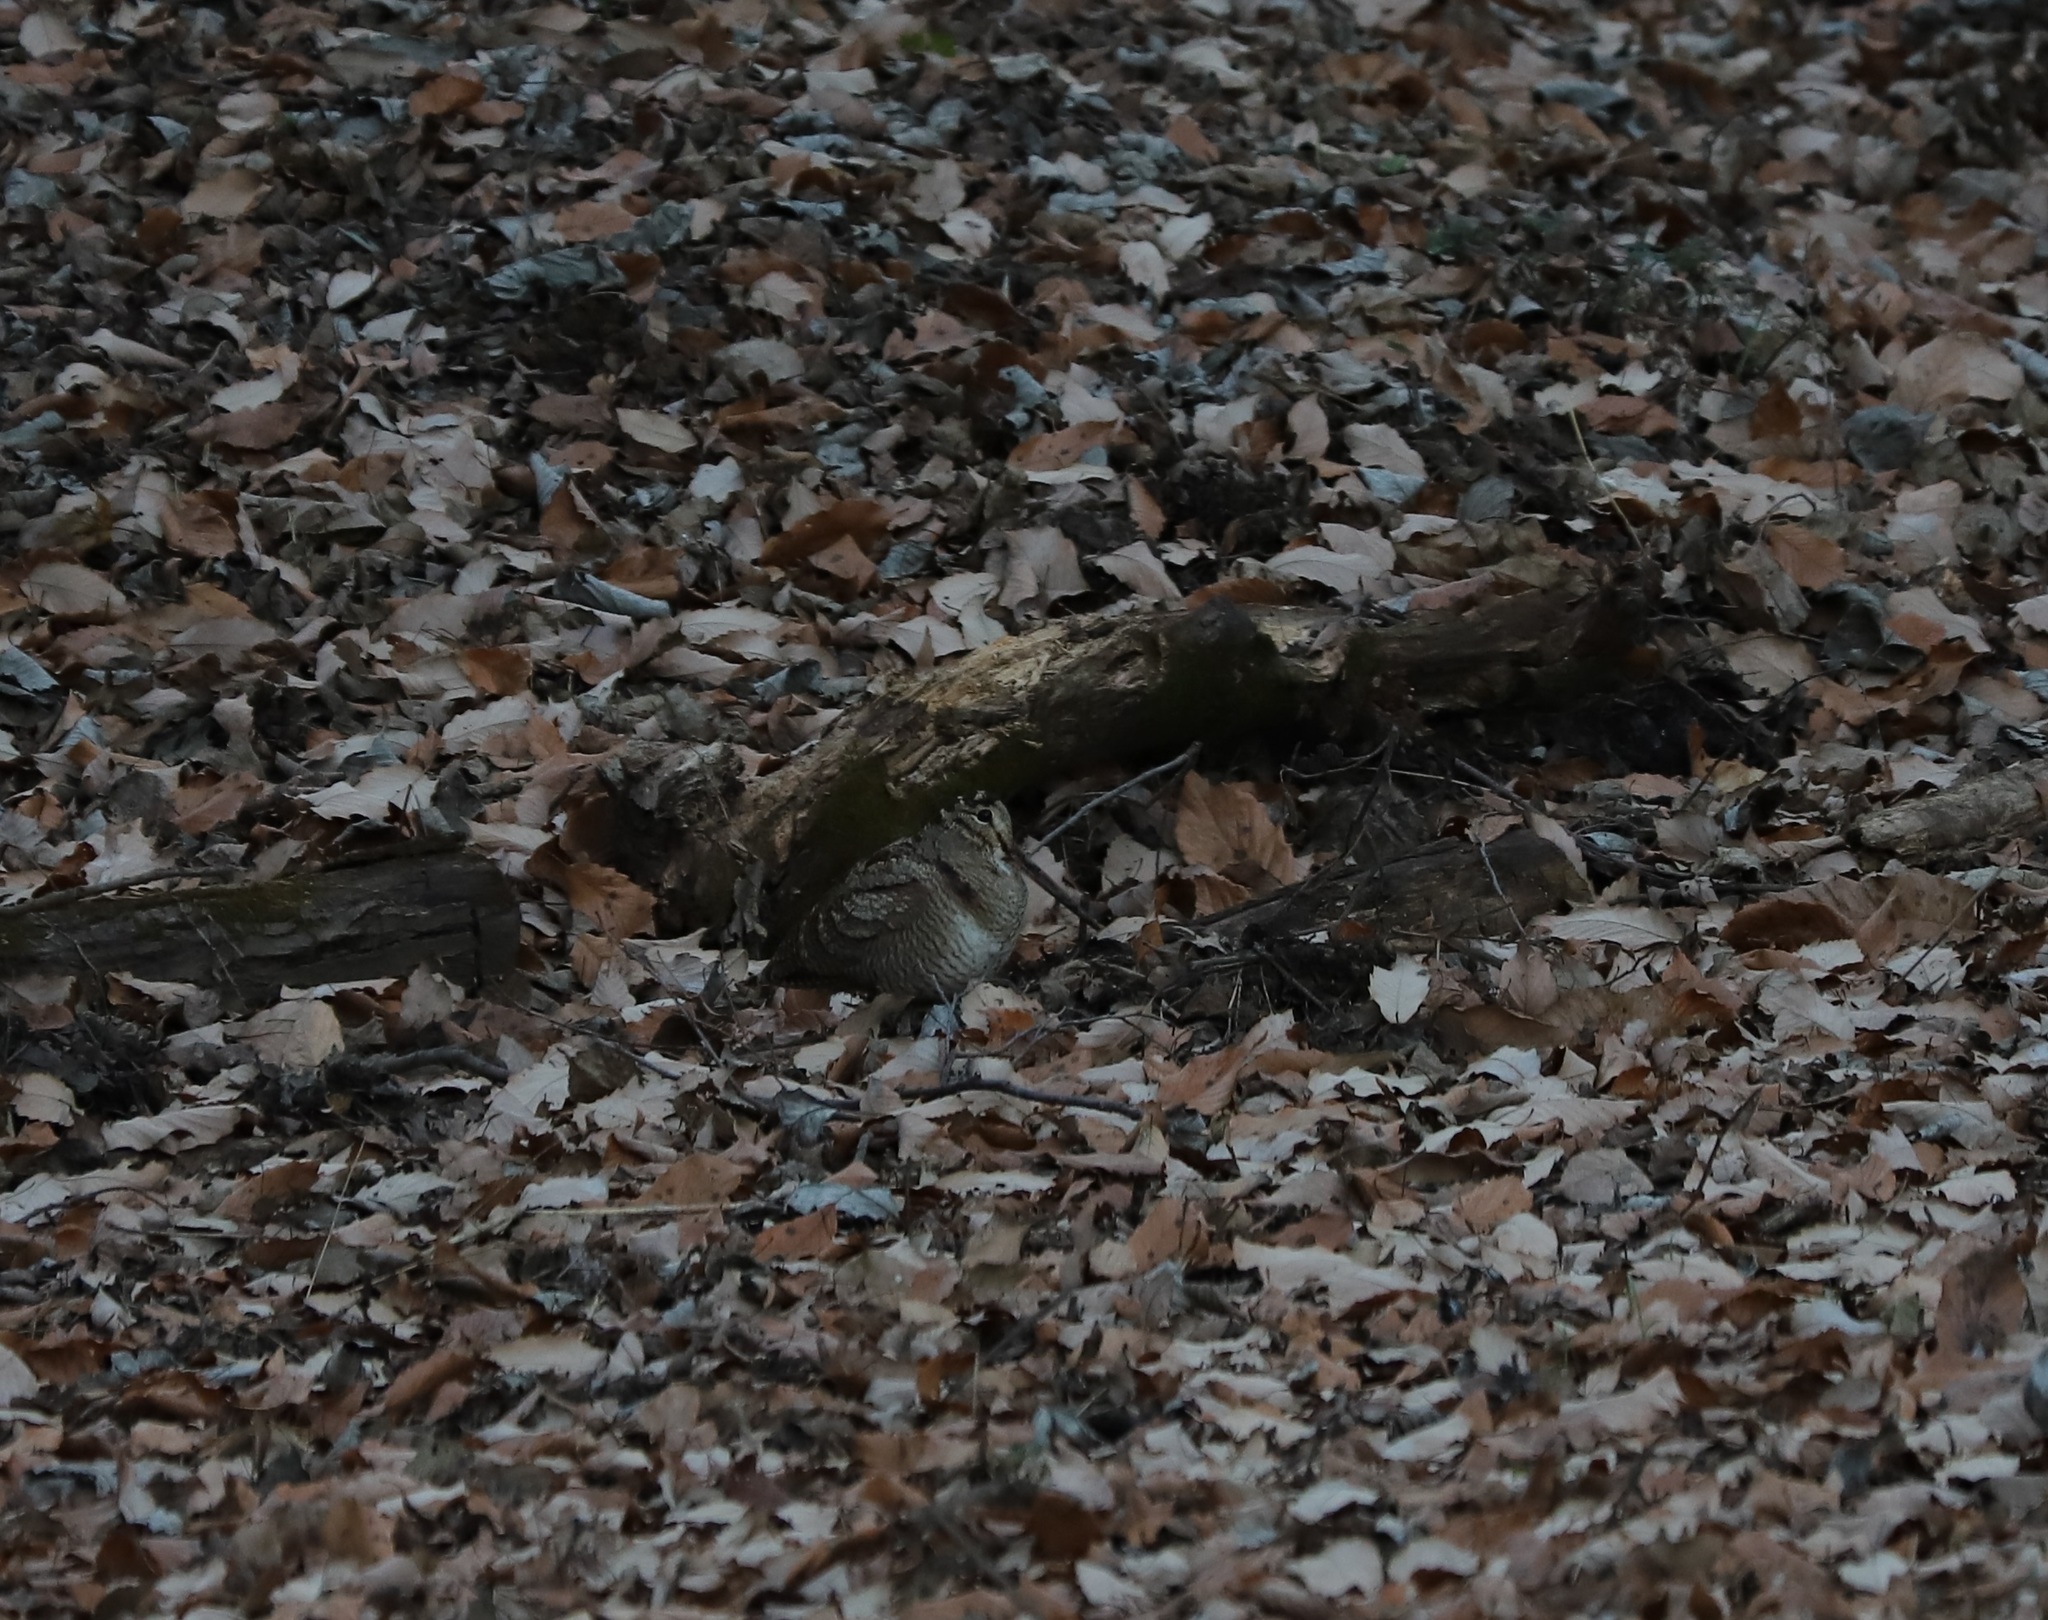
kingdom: Animalia
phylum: Chordata
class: Aves
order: Charadriiformes
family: Scolopacidae
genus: Scolopax
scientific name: Scolopax rusticola
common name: Eurasian woodcock
